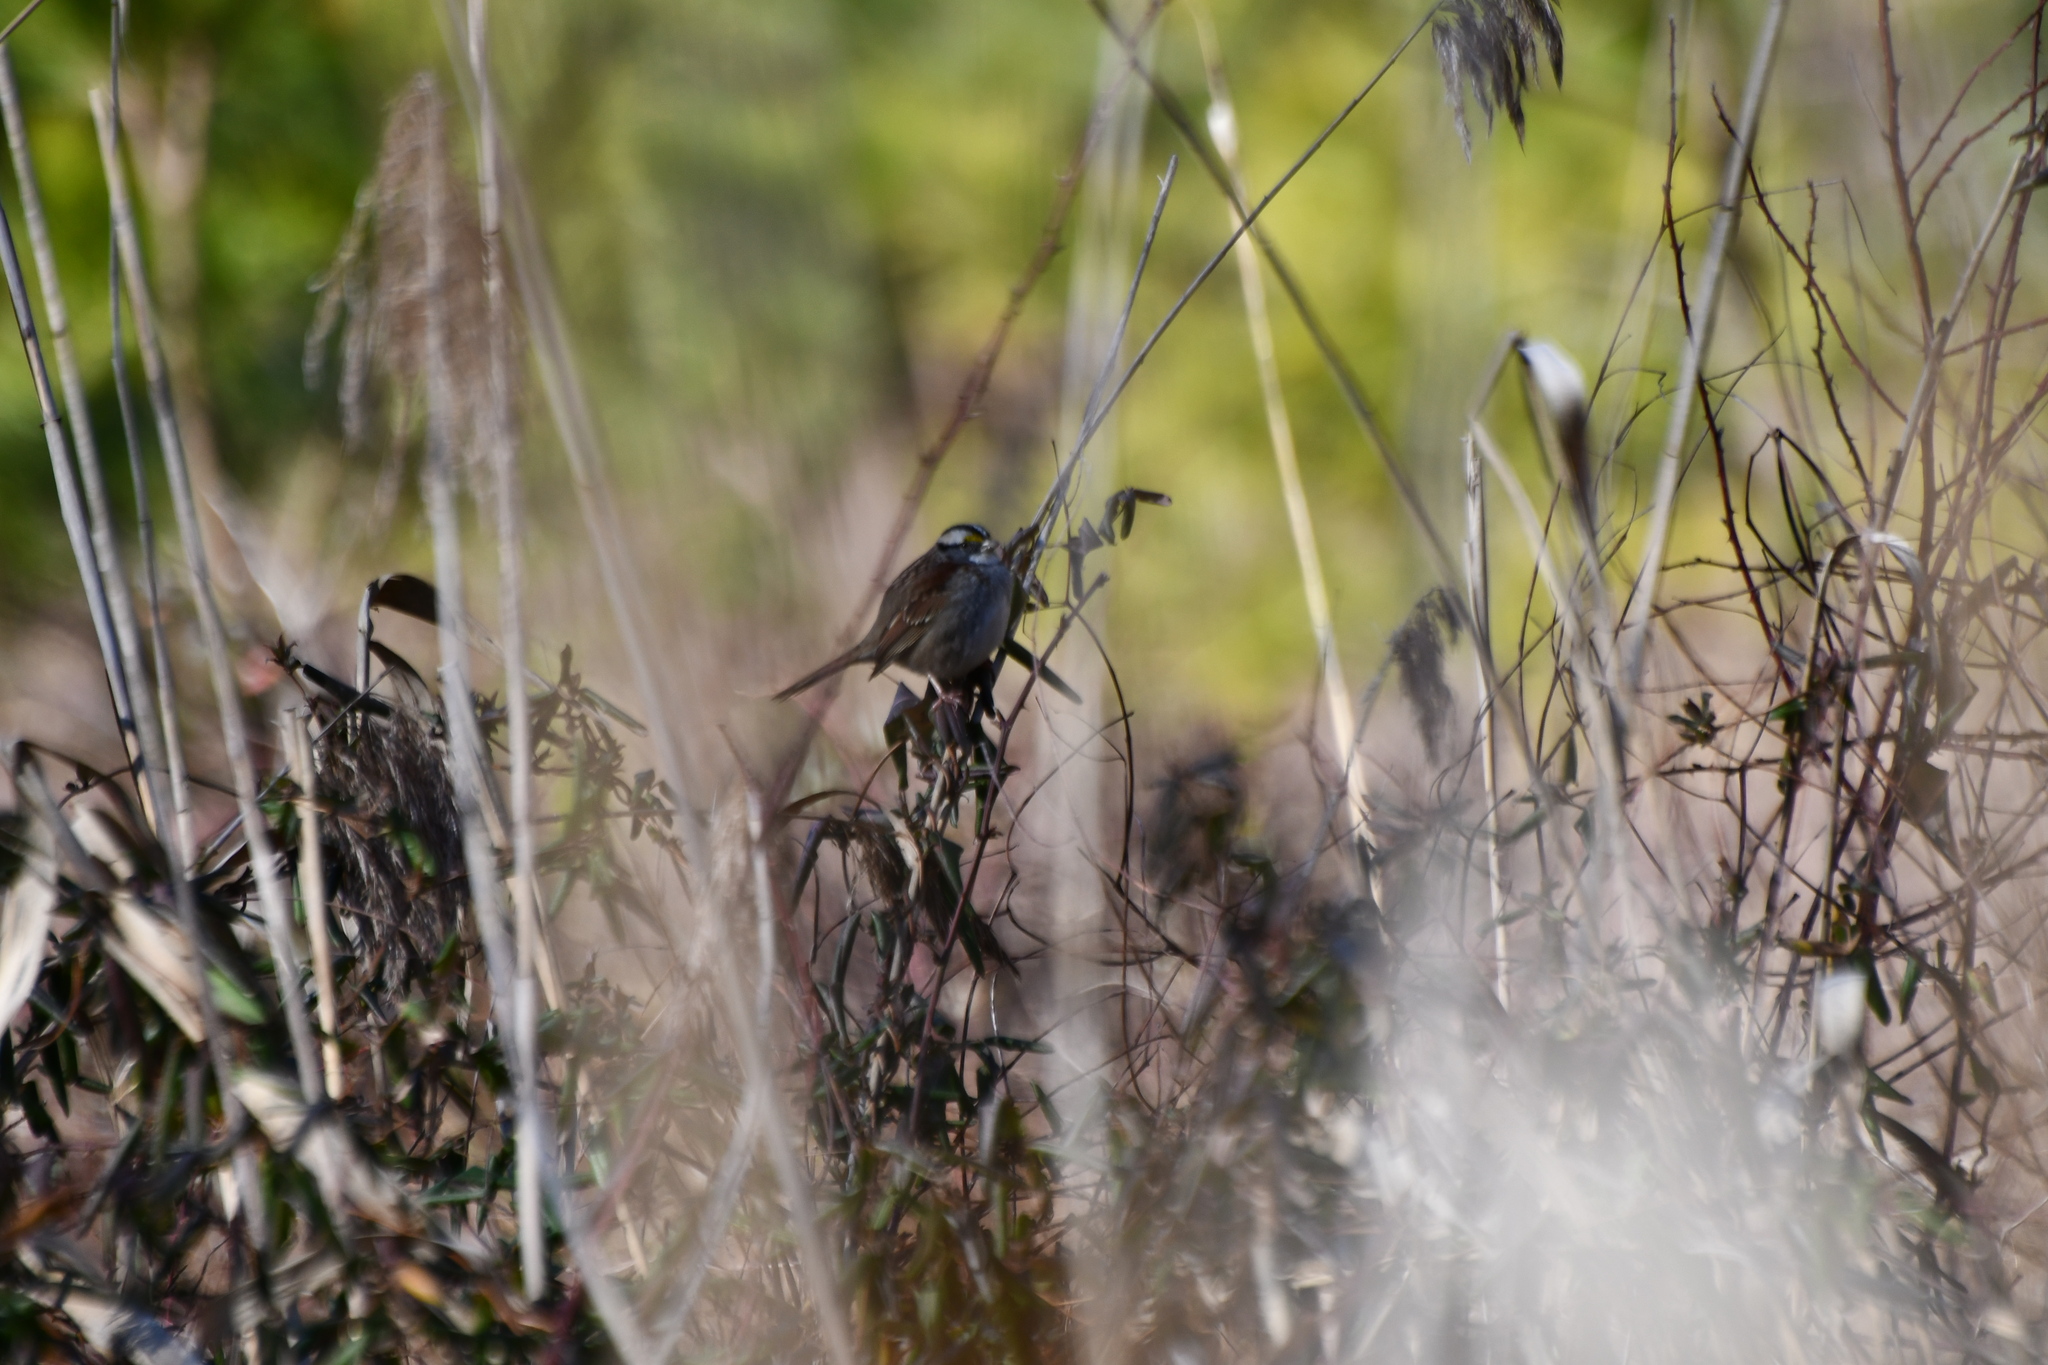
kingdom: Animalia
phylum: Chordata
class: Aves
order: Passeriformes
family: Passerellidae
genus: Zonotrichia
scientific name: Zonotrichia albicollis
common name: White-throated sparrow
